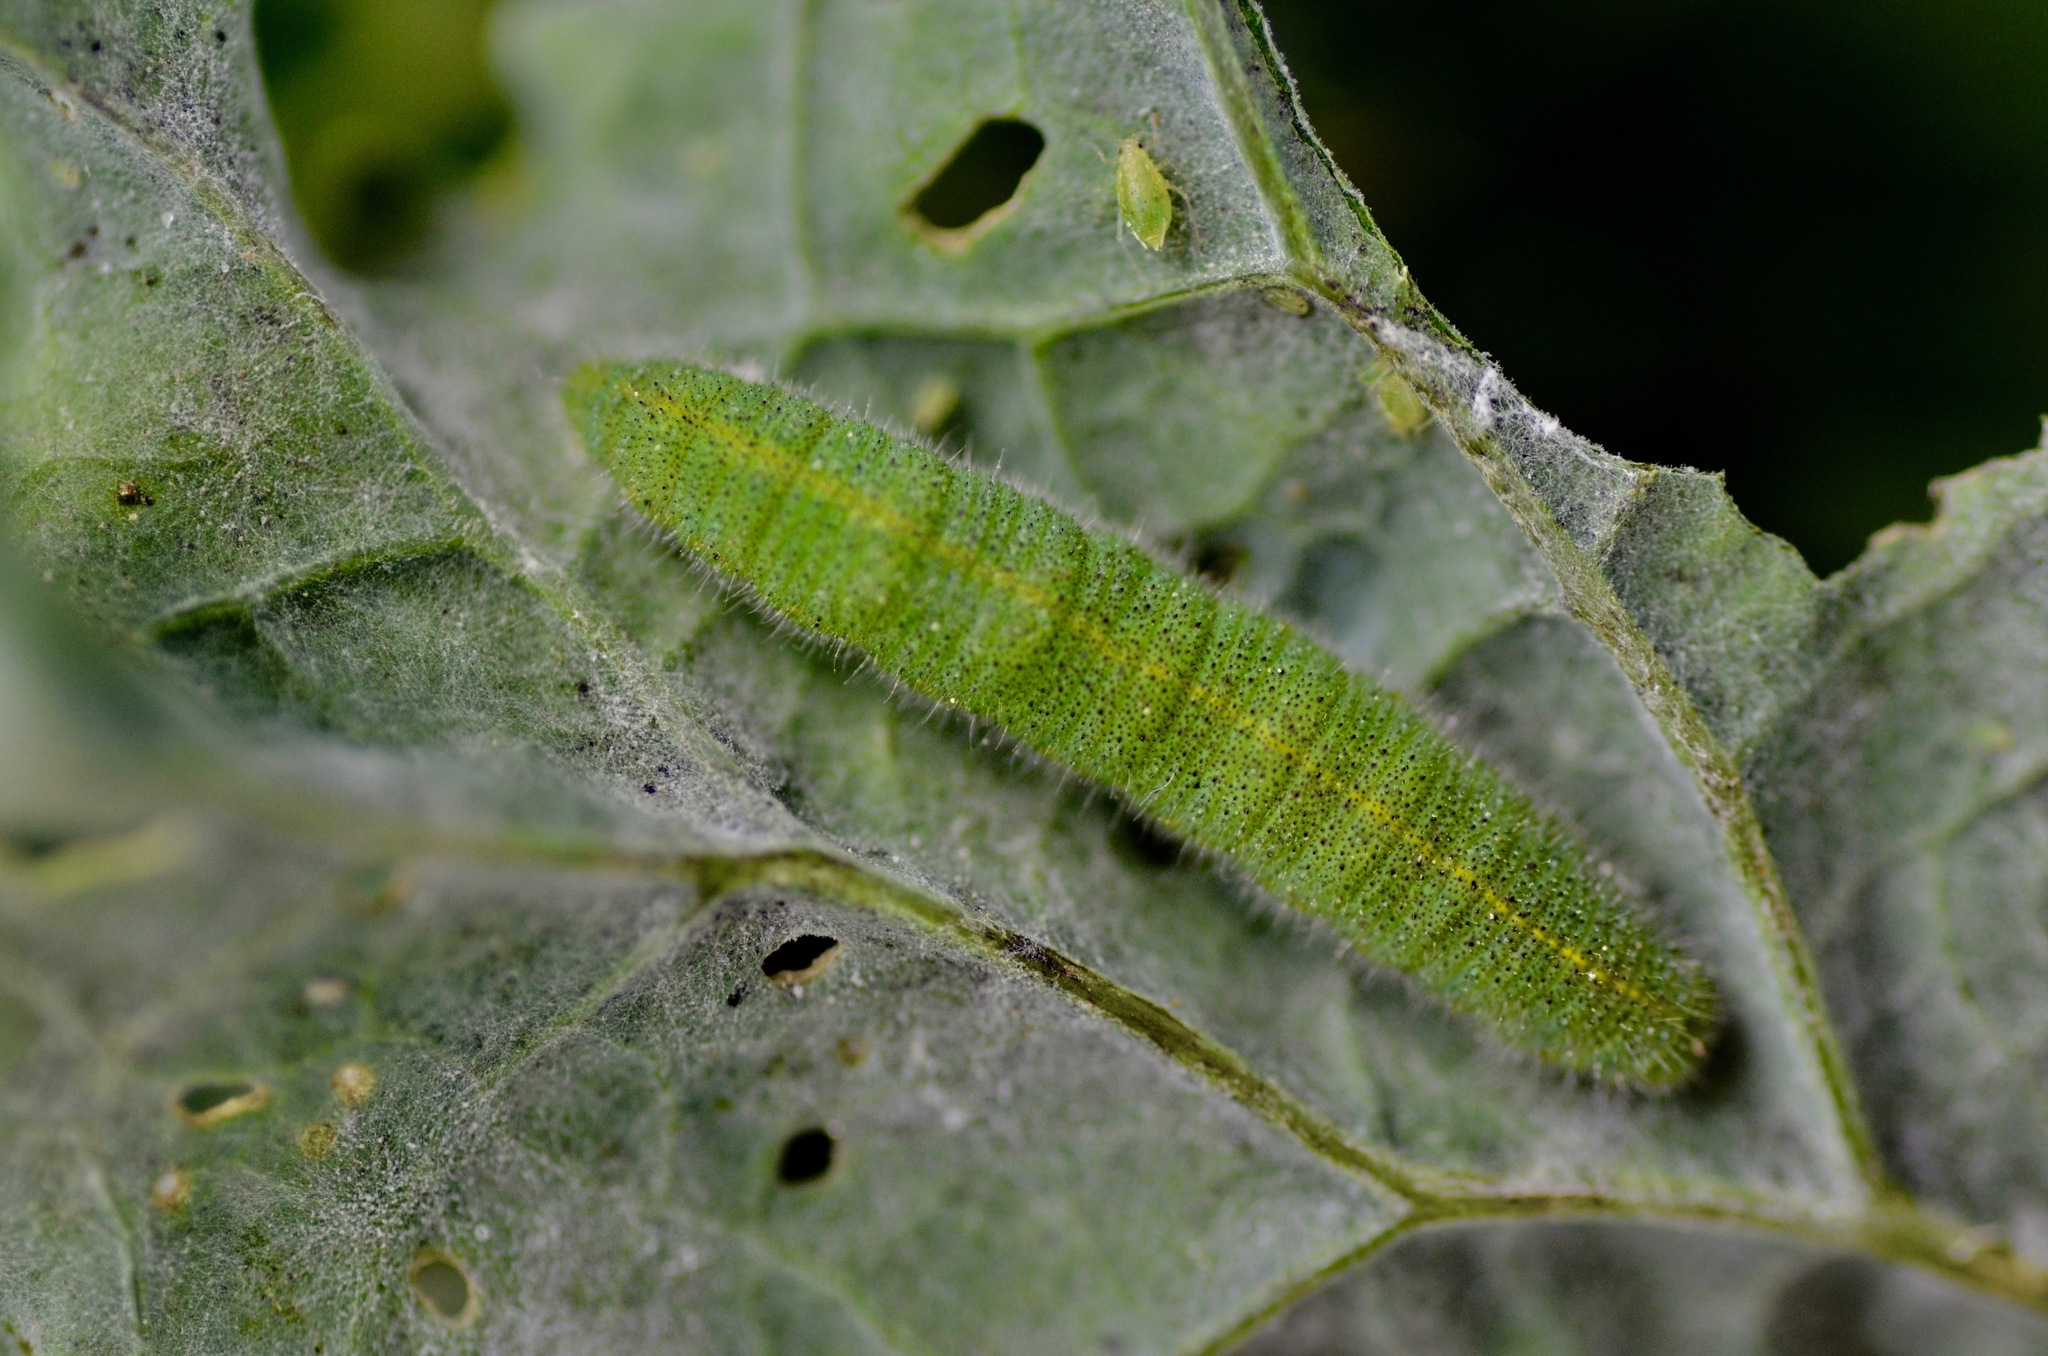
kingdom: Animalia
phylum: Arthropoda
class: Insecta
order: Lepidoptera
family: Pieridae
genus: Pieris
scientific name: Pieris rapae
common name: Small white
